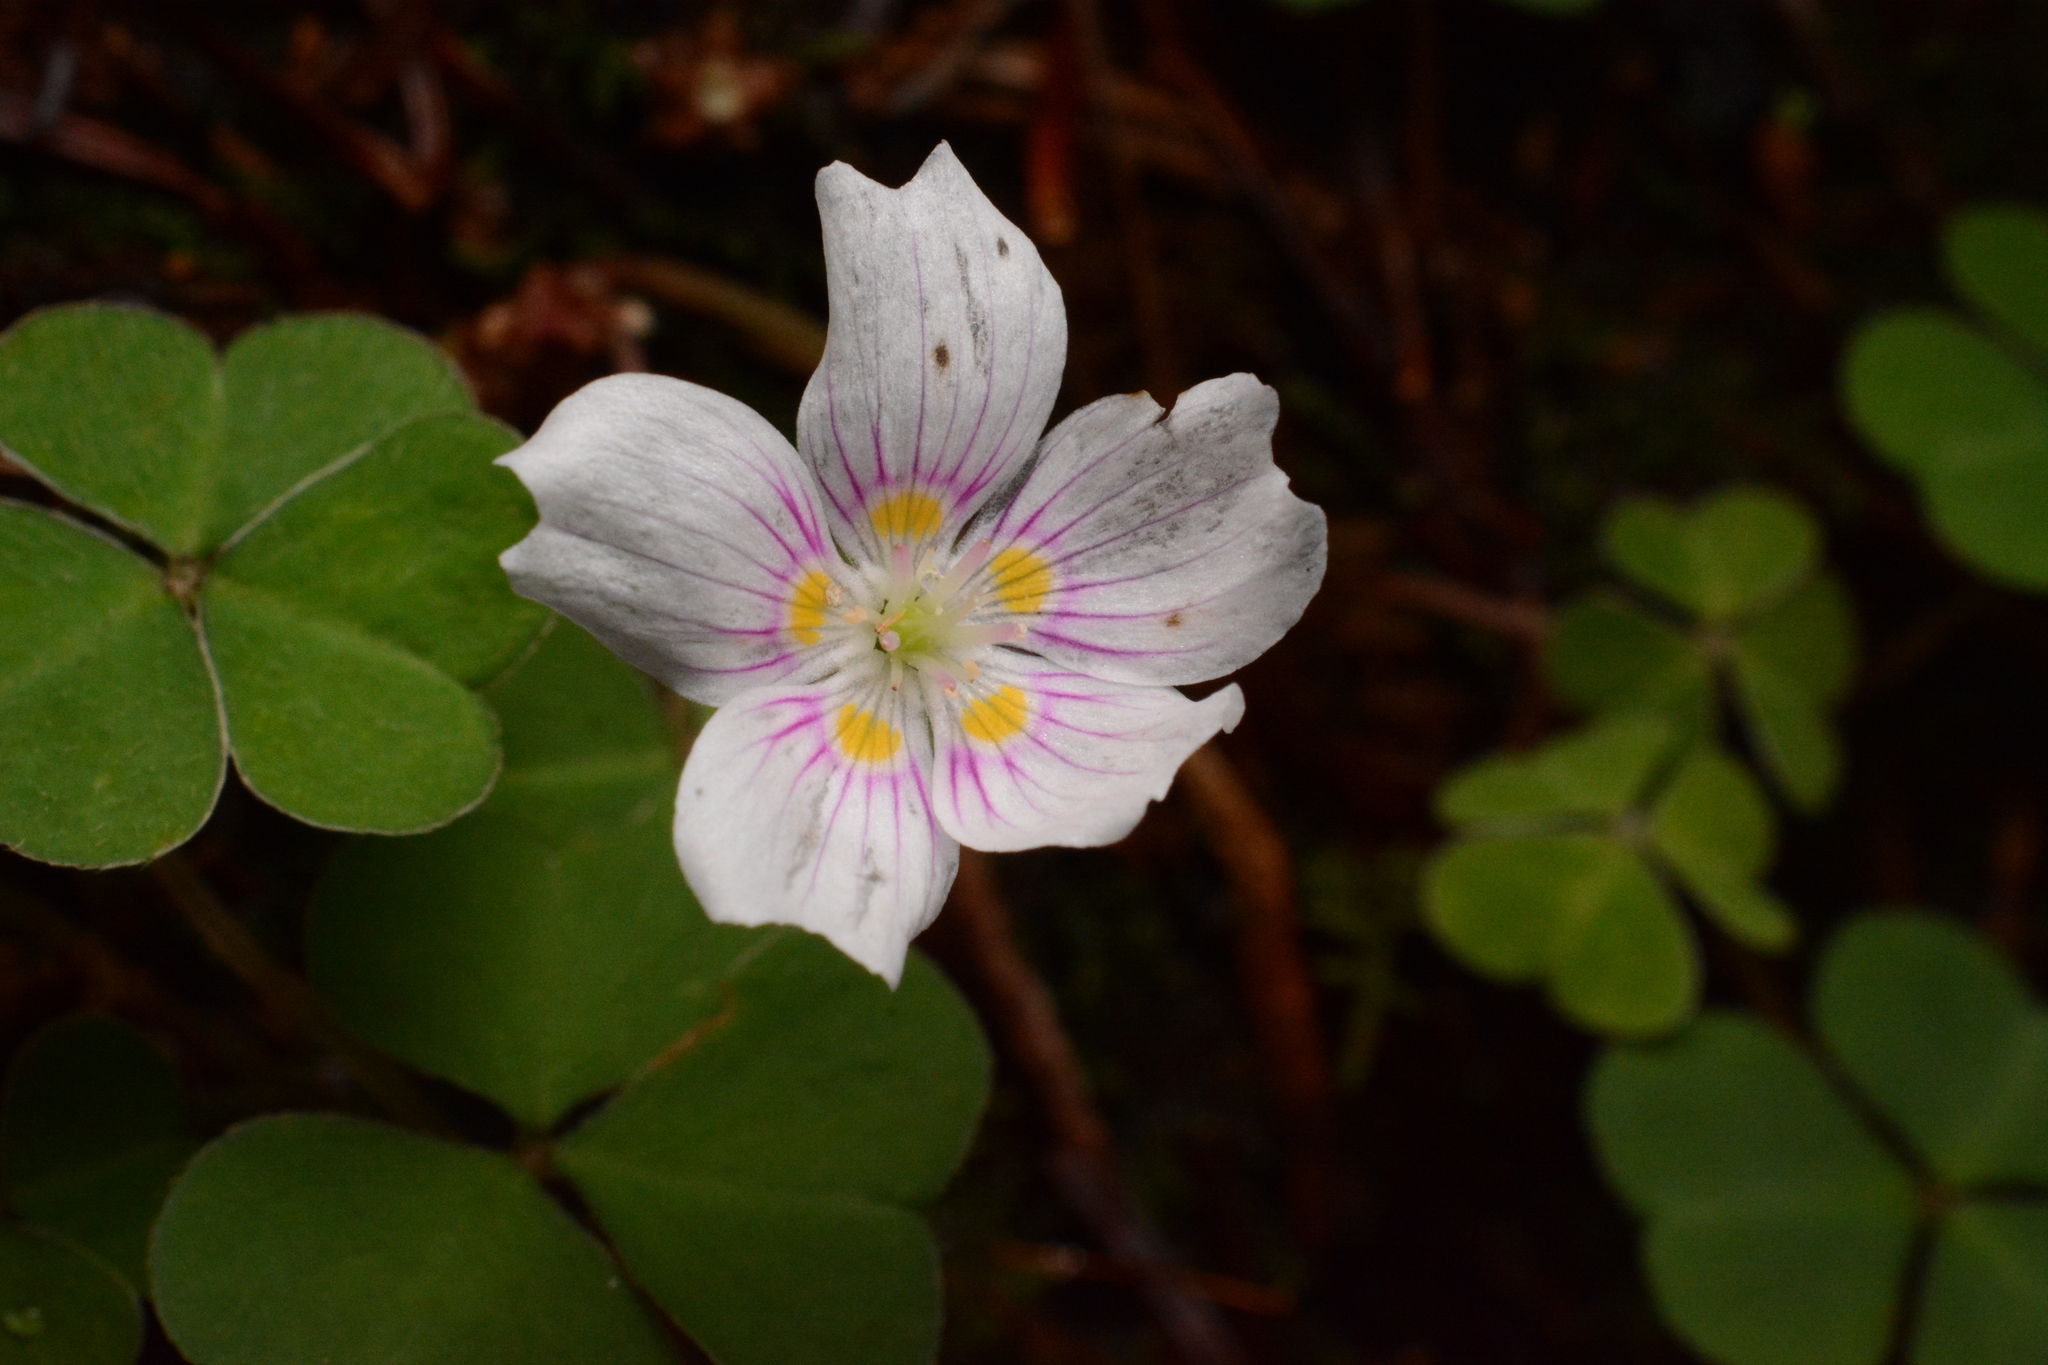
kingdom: Plantae
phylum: Tracheophyta
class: Magnoliopsida
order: Oxalidales
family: Oxalidaceae
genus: Oxalis
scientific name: Oxalis montana
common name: American wood-sorrel
